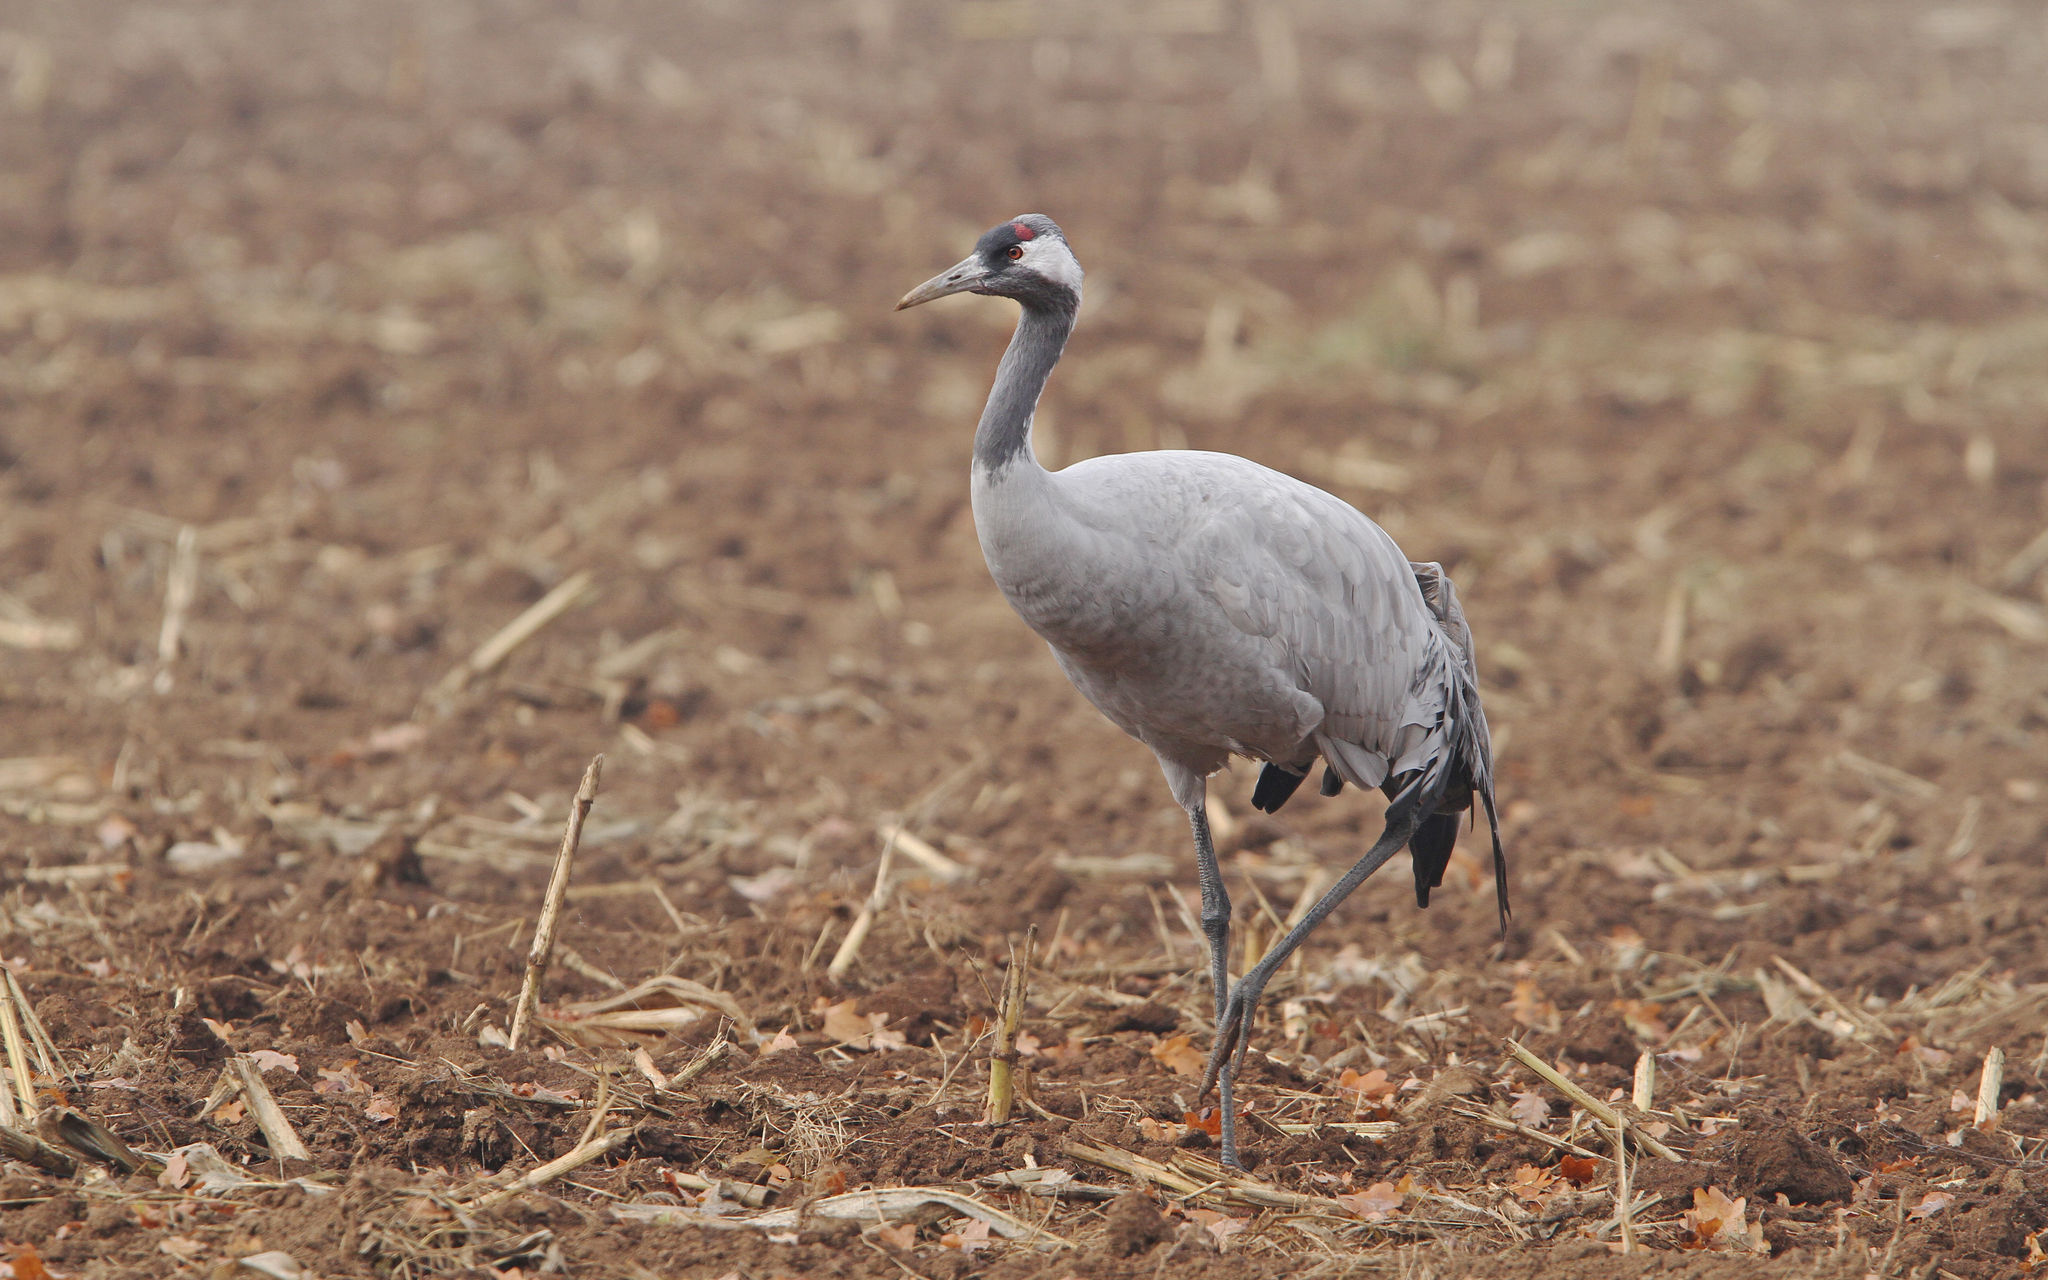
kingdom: Animalia
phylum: Chordata
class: Aves
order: Gruiformes
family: Gruidae
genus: Grus
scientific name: Grus grus
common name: Common crane
